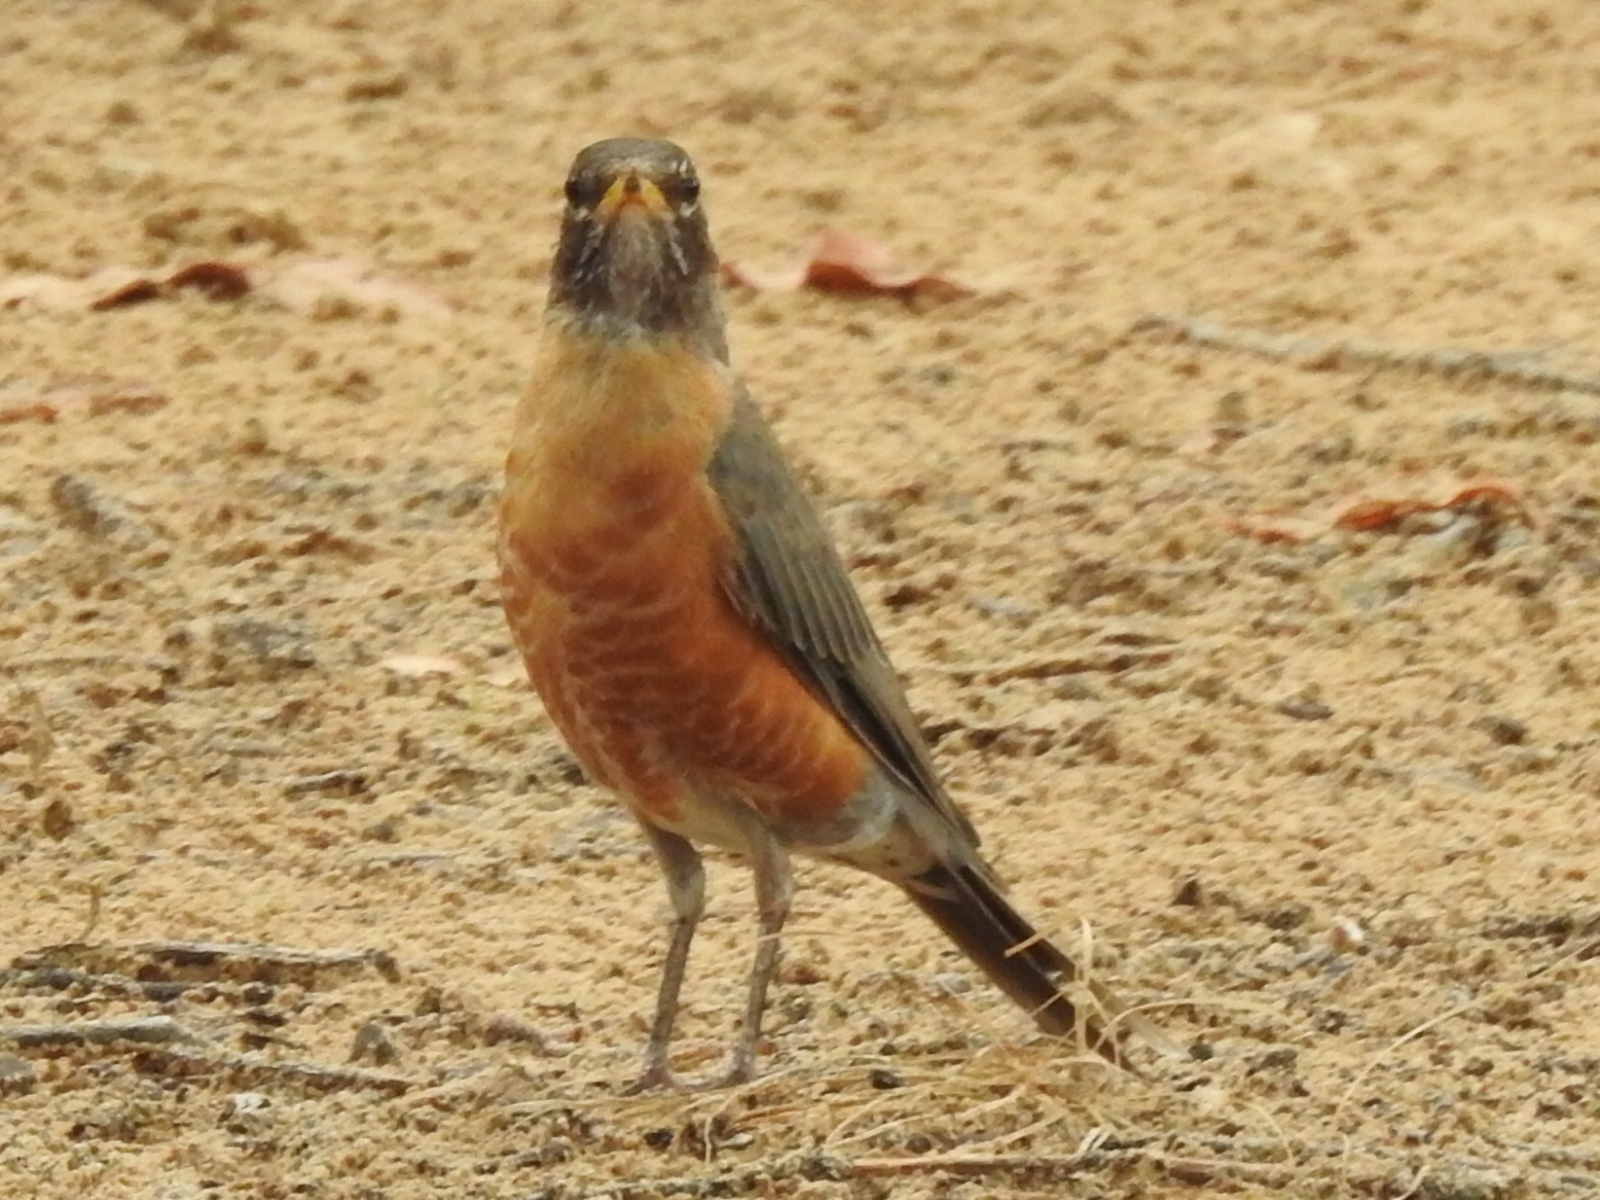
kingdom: Animalia
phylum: Chordata
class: Aves
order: Passeriformes
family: Turdidae
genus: Turdus
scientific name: Turdus migratorius
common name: American robin
